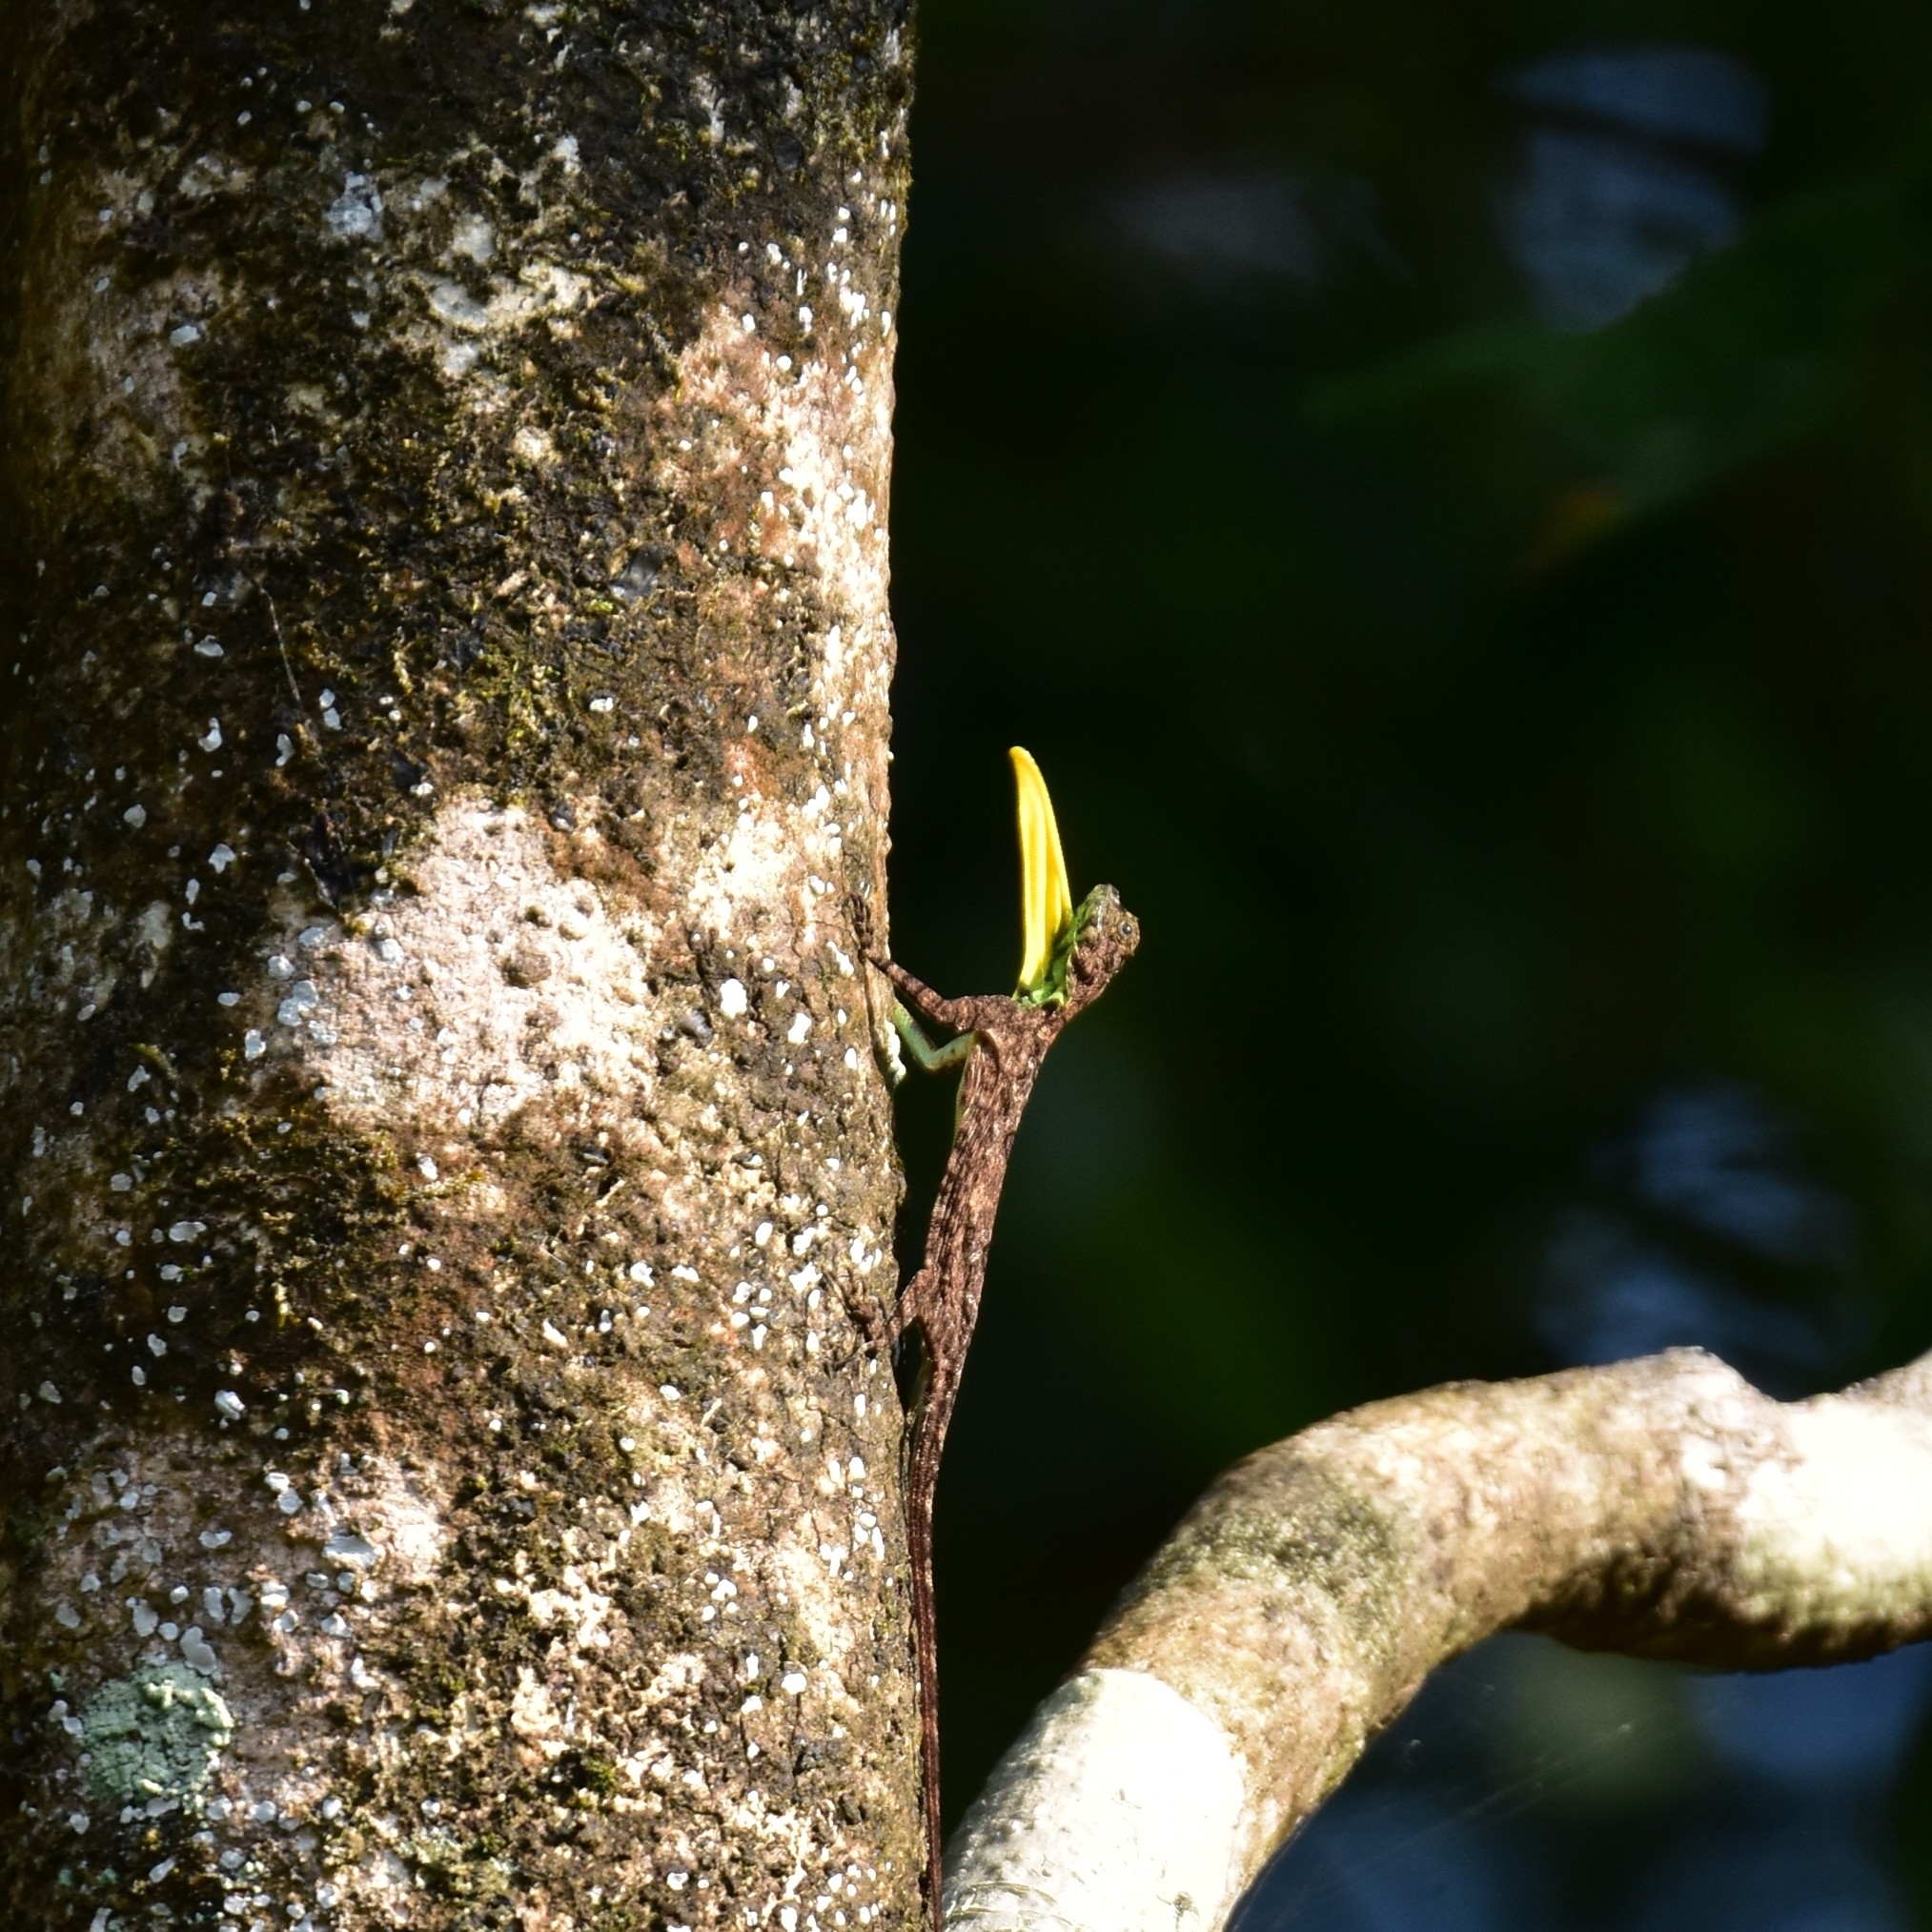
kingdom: Animalia
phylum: Chordata
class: Squamata
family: Agamidae
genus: Draco
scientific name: Draco dussumieri
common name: Southern flying lizard
